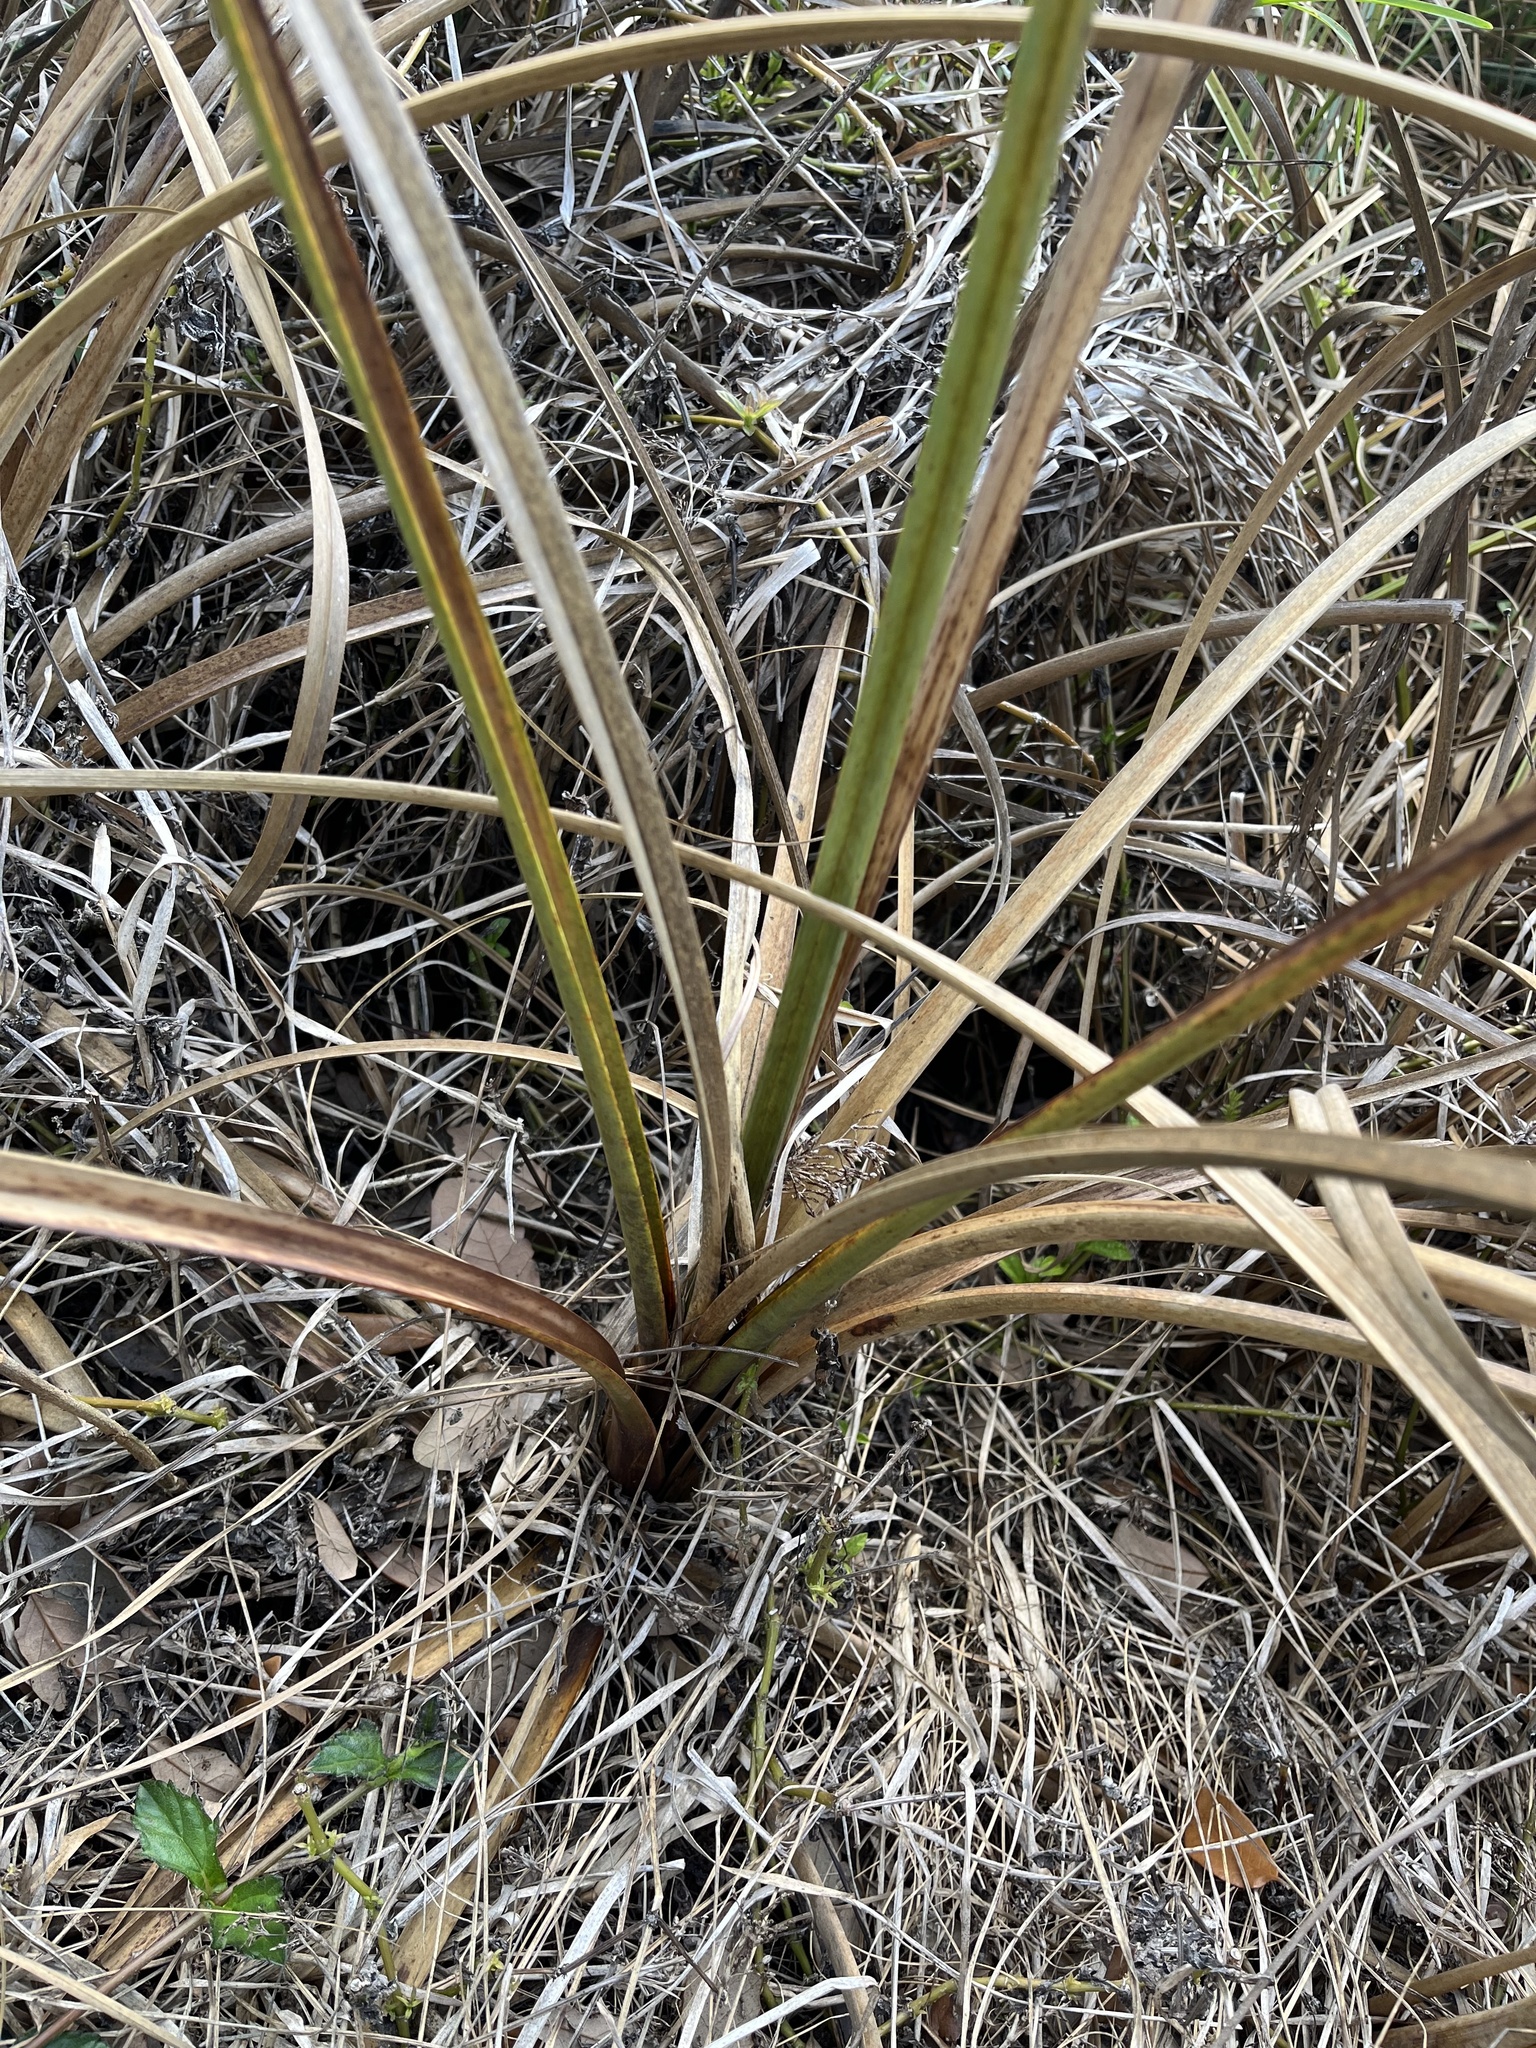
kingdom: Plantae
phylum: Tracheophyta
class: Liliopsida
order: Poales
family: Cyperaceae
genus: Cladium
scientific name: Cladium mariscus
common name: Great fen-sedge
